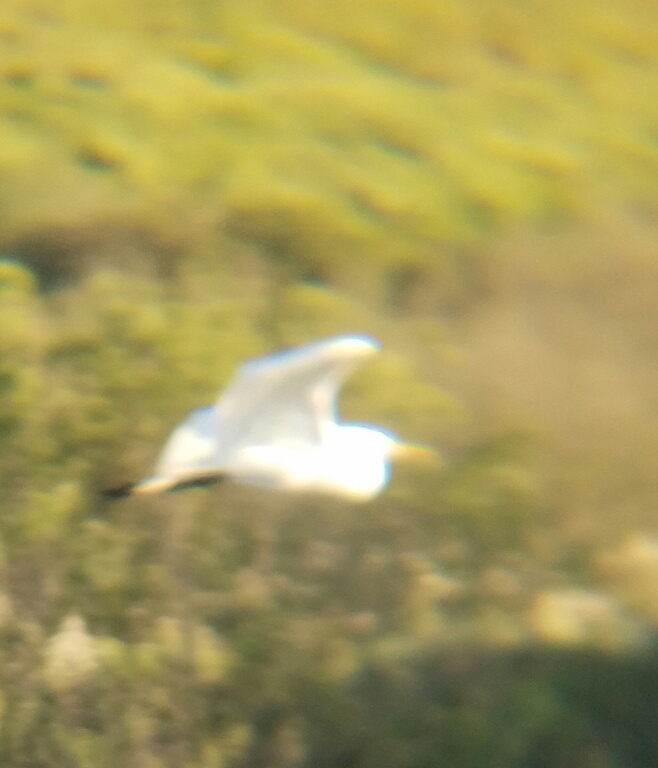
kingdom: Animalia
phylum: Chordata
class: Aves
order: Pelecaniformes
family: Ardeidae
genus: Ardea
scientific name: Ardea alba
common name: Great egret
